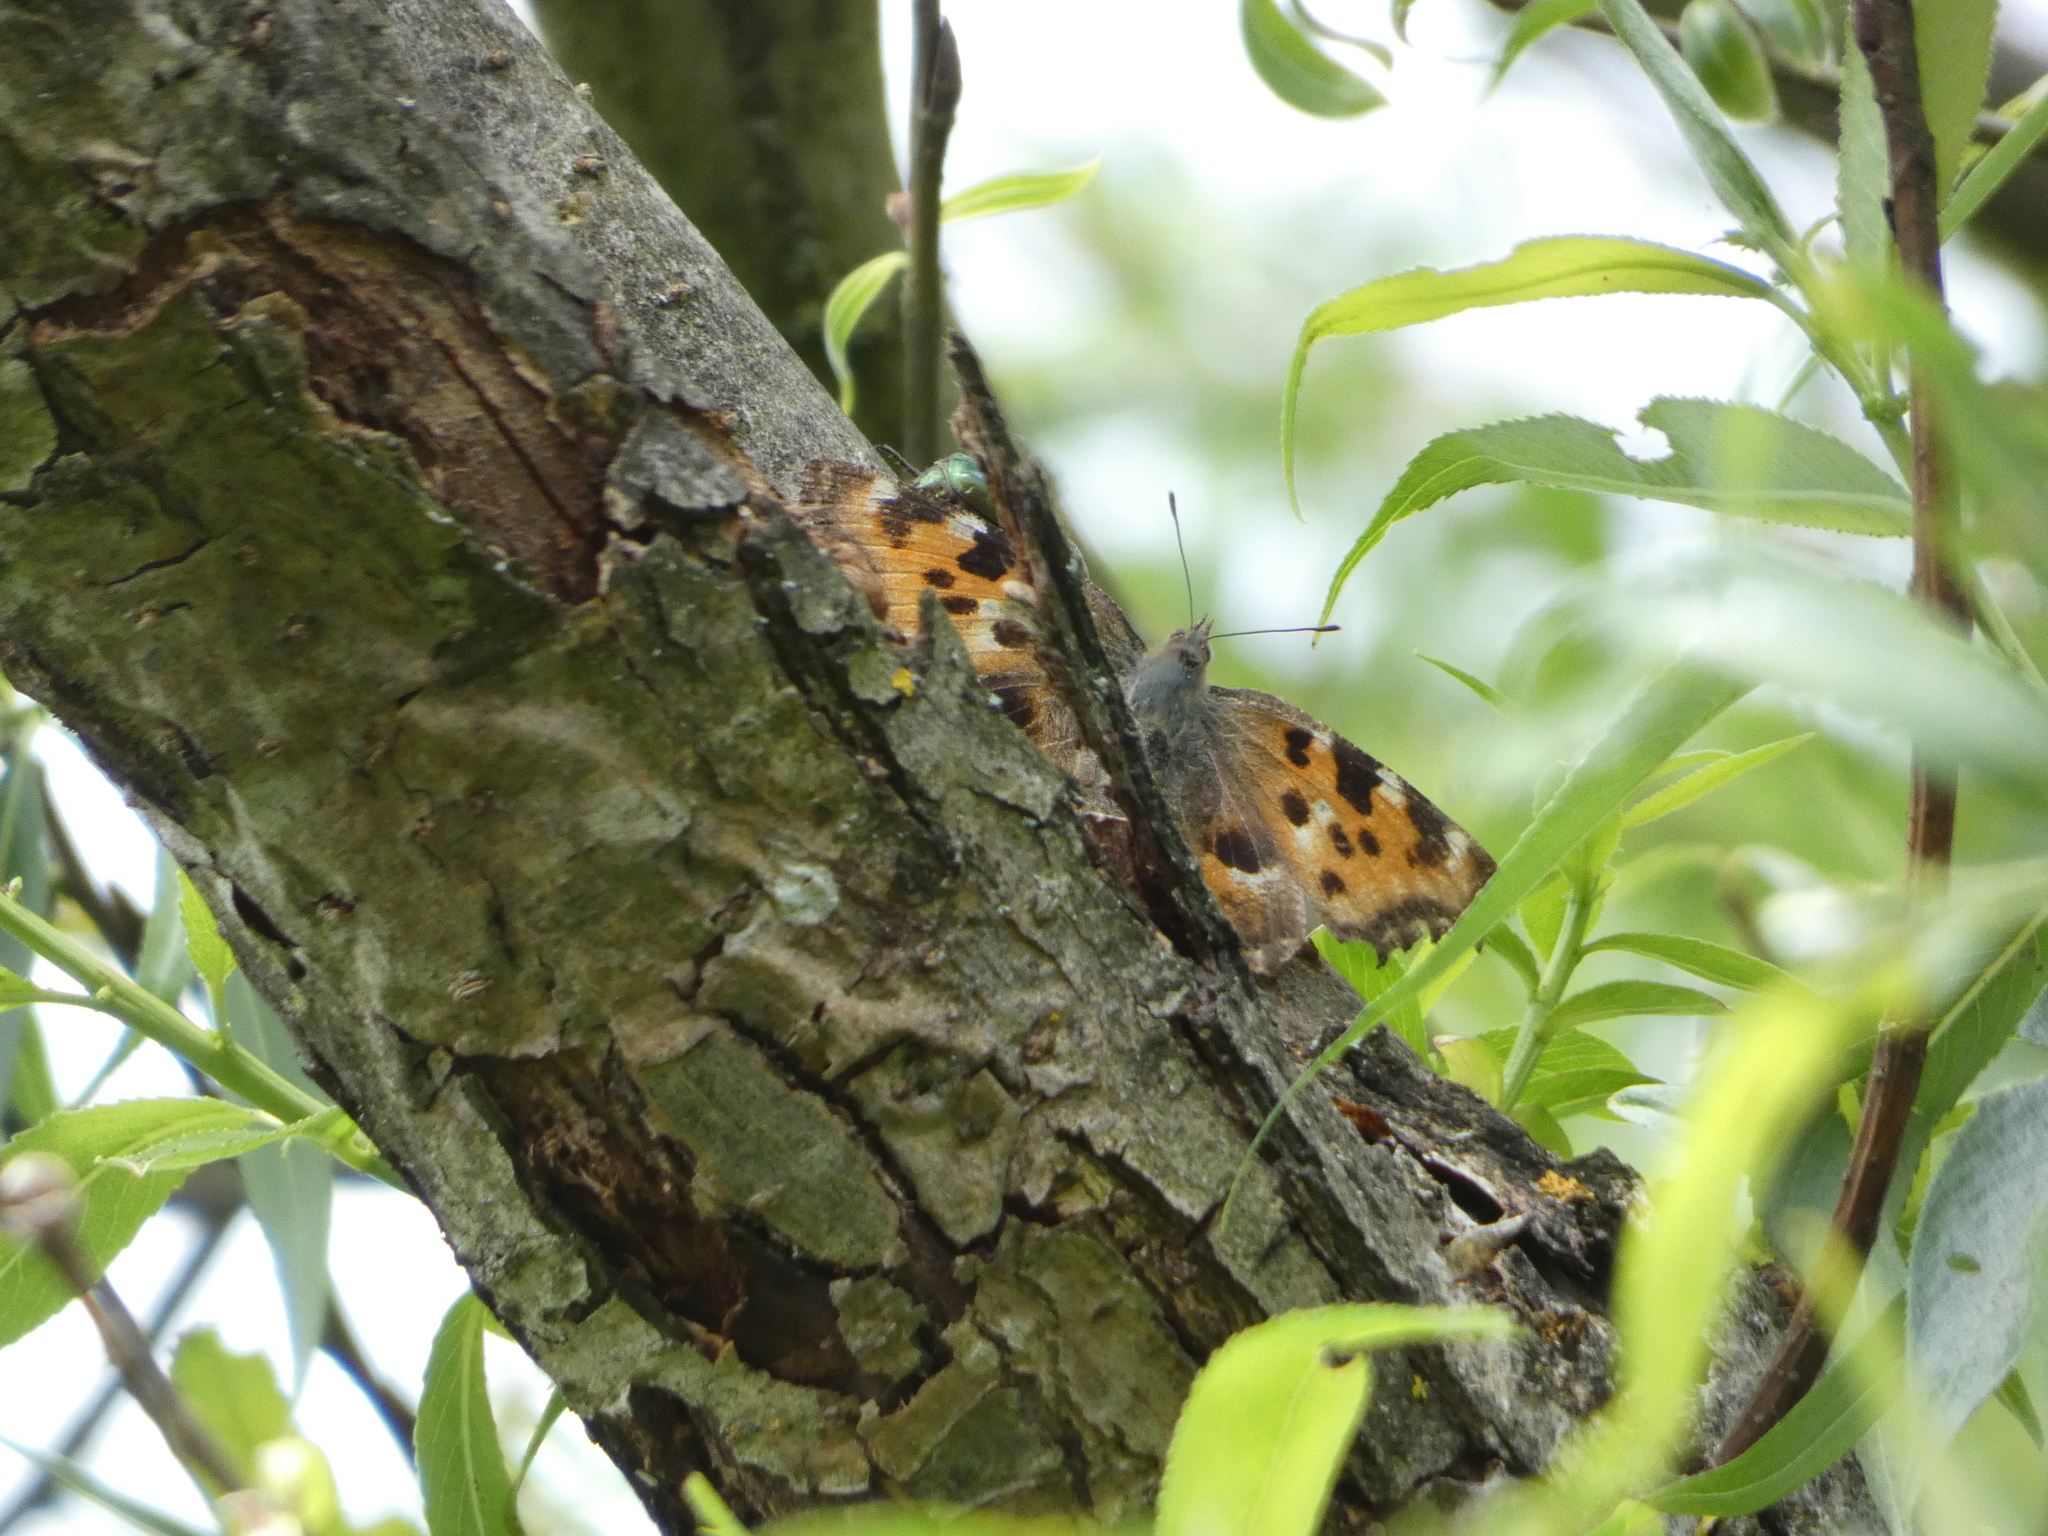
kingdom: Animalia
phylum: Arthropoda
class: Insecta
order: Lepidoptera
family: Nymphalidae
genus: Nymphalis
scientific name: Nymphalis polychloros
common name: Large tortoiseshell
